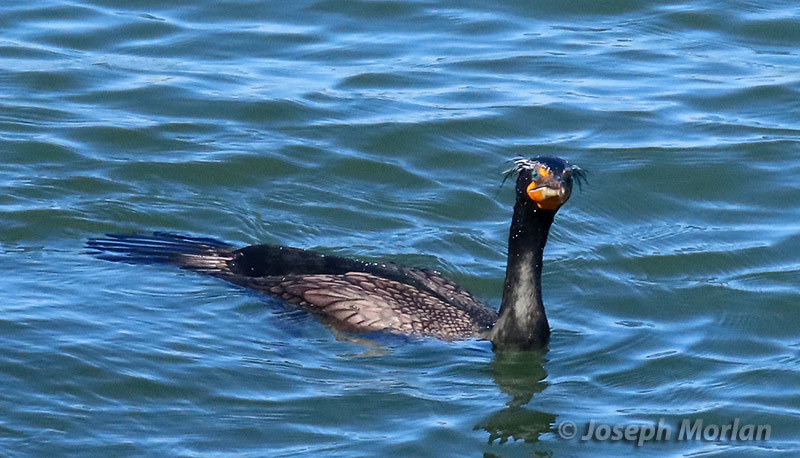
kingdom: Animalia
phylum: Chordata
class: Aves
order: Suliformes
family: Phalacrocoracidae
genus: Phalacrocorax
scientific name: Phalacrocorax auritus
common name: Double-crested cormorant
